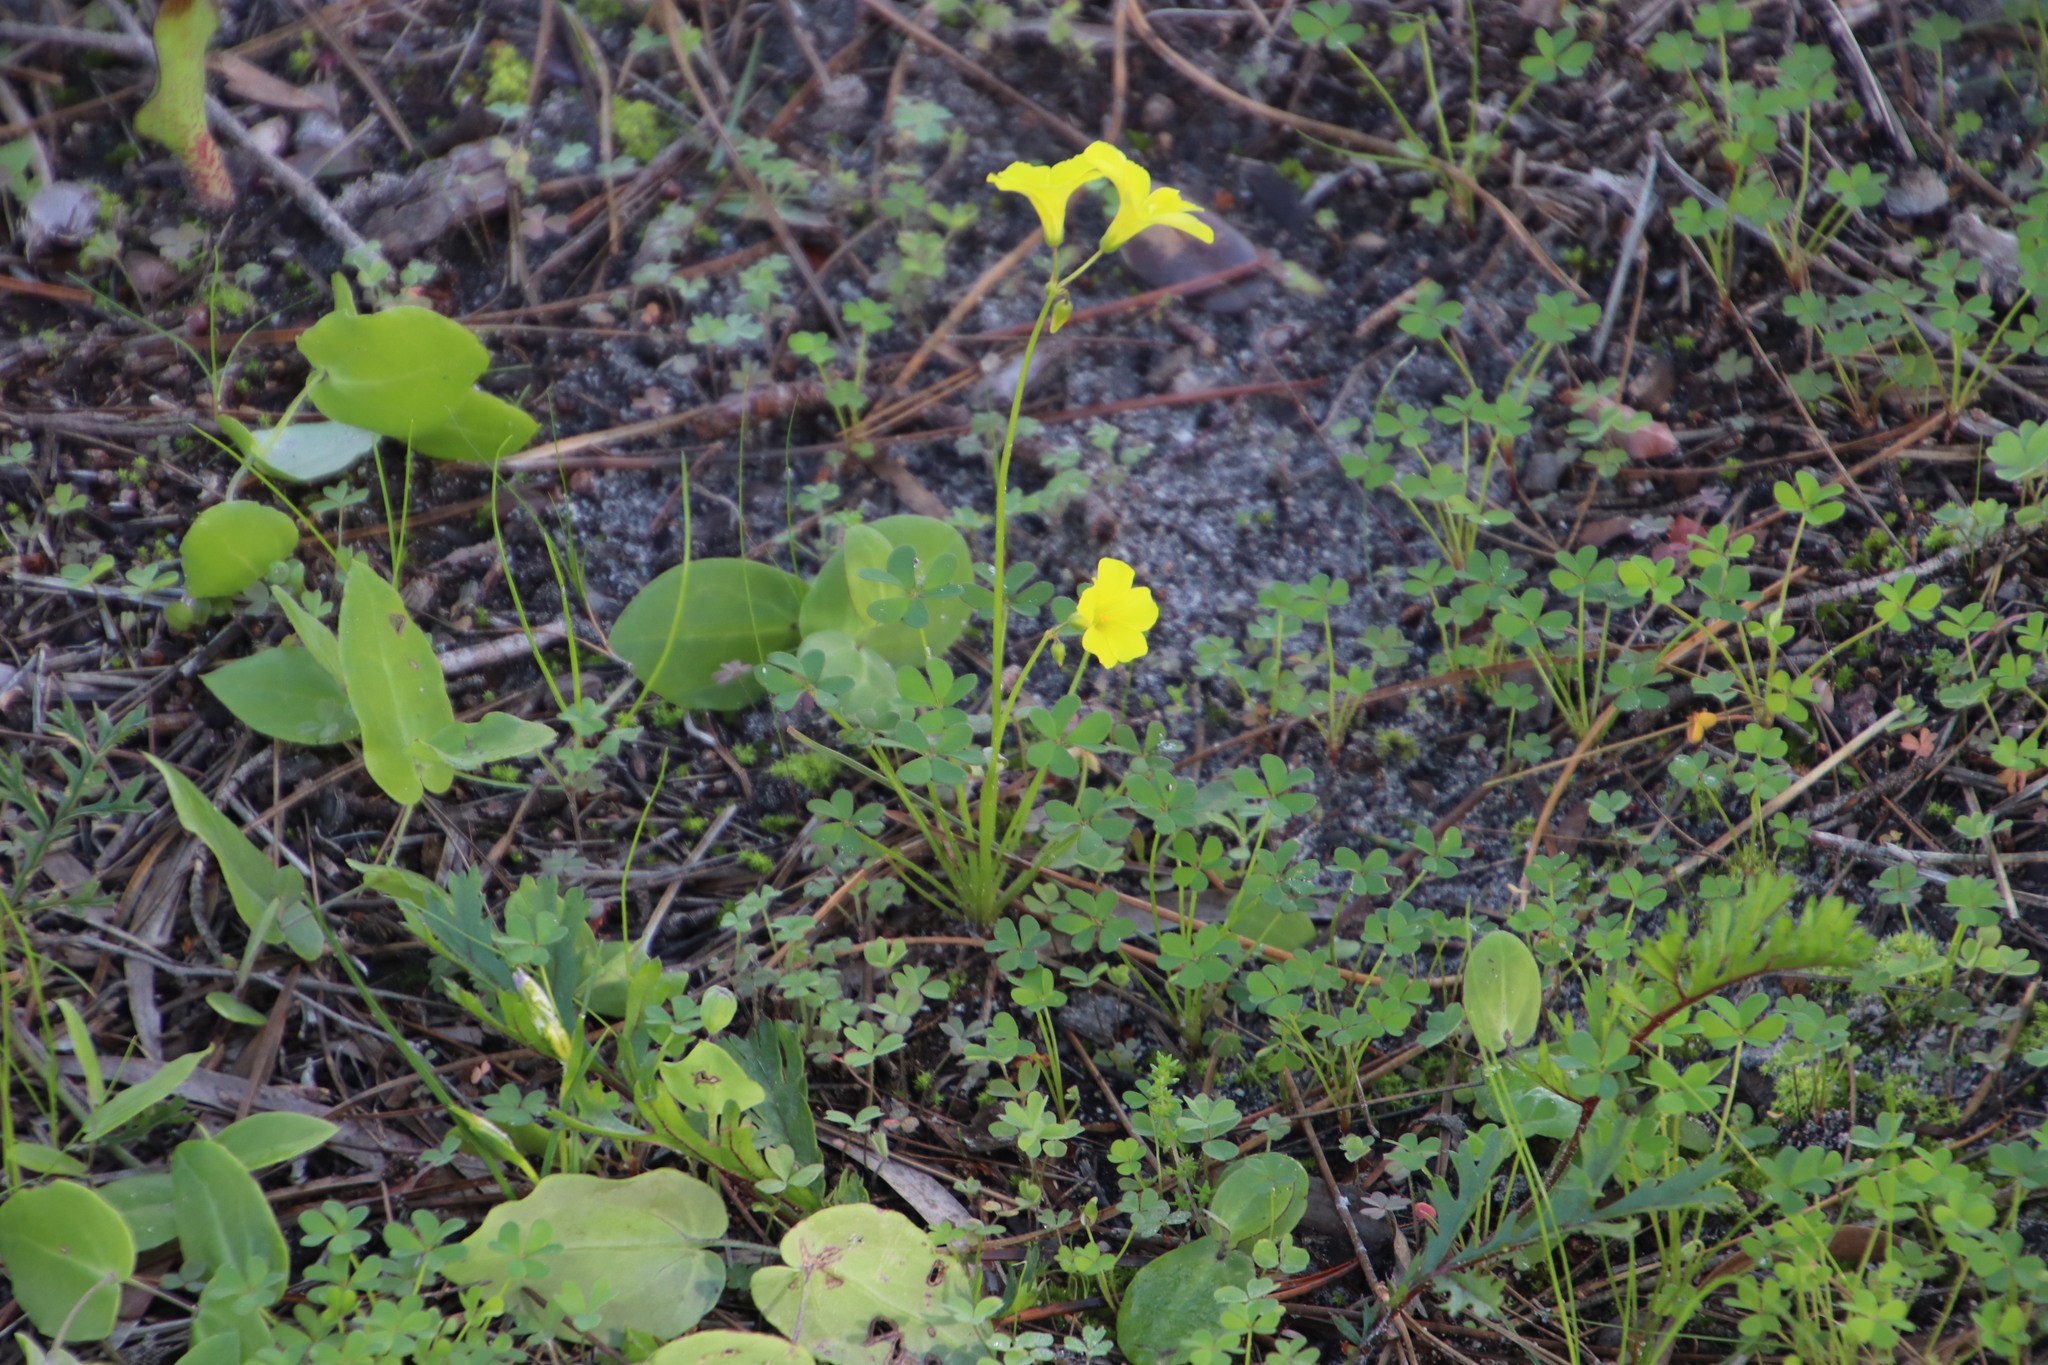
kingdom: Plantae
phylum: Tracheophyta
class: Magnoliopsida
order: Oxalidales
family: Oxalidaceae
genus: Oxalis
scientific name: Oxalis pes-caprae
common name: Bermuda-buttercup
